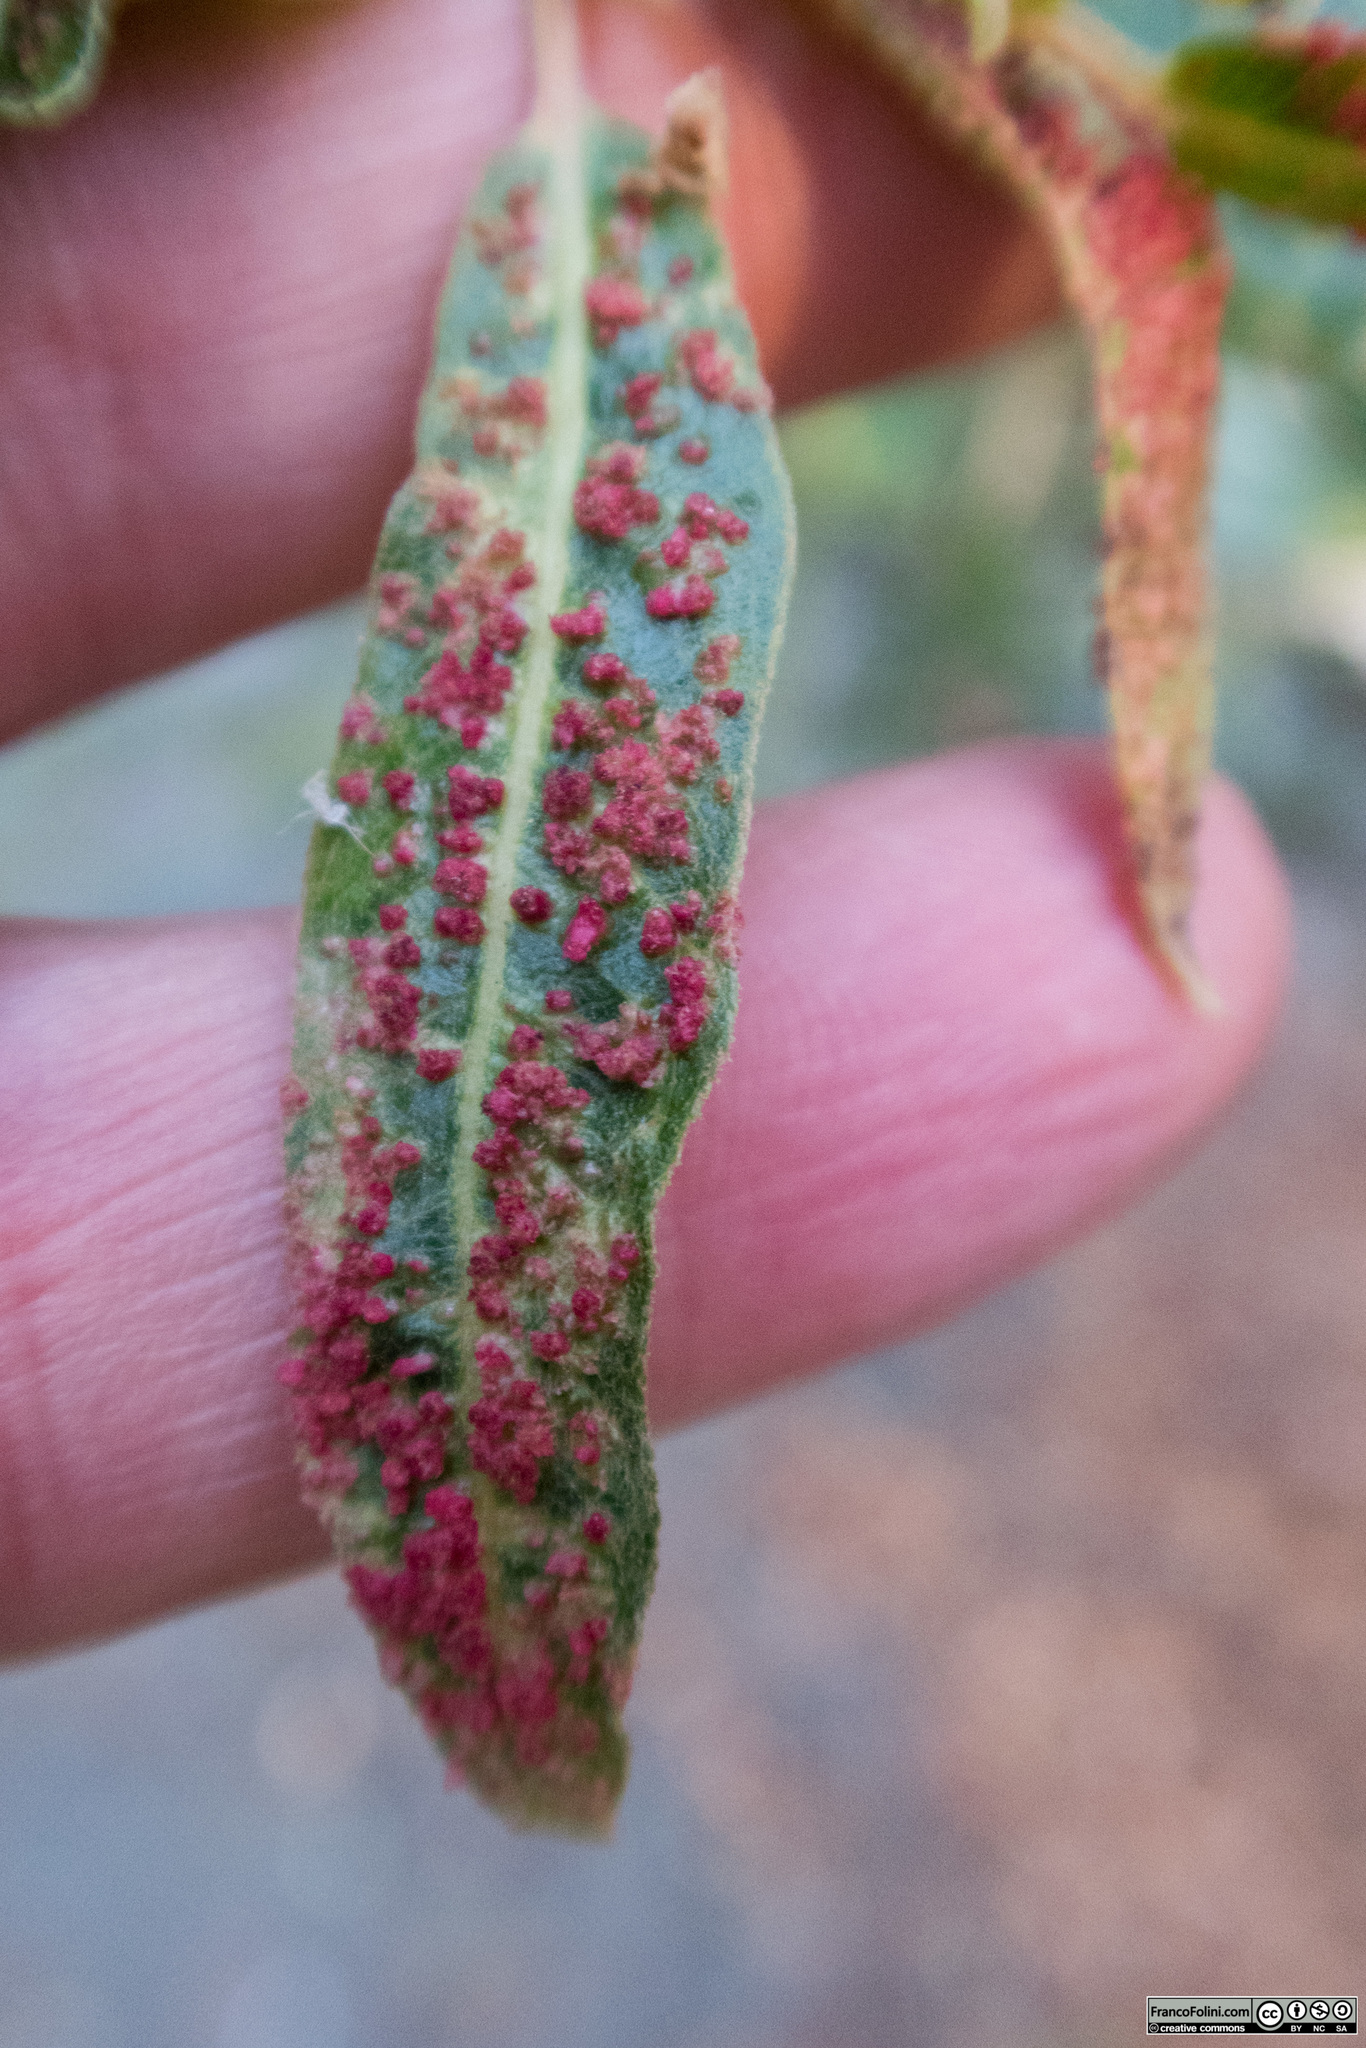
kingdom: Animalia
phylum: Arthropoda
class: Arachnida
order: Trombidiformes
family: Eriophyidae
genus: Aculus
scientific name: Aculus tetanothrix
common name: Willow bead gall mite
